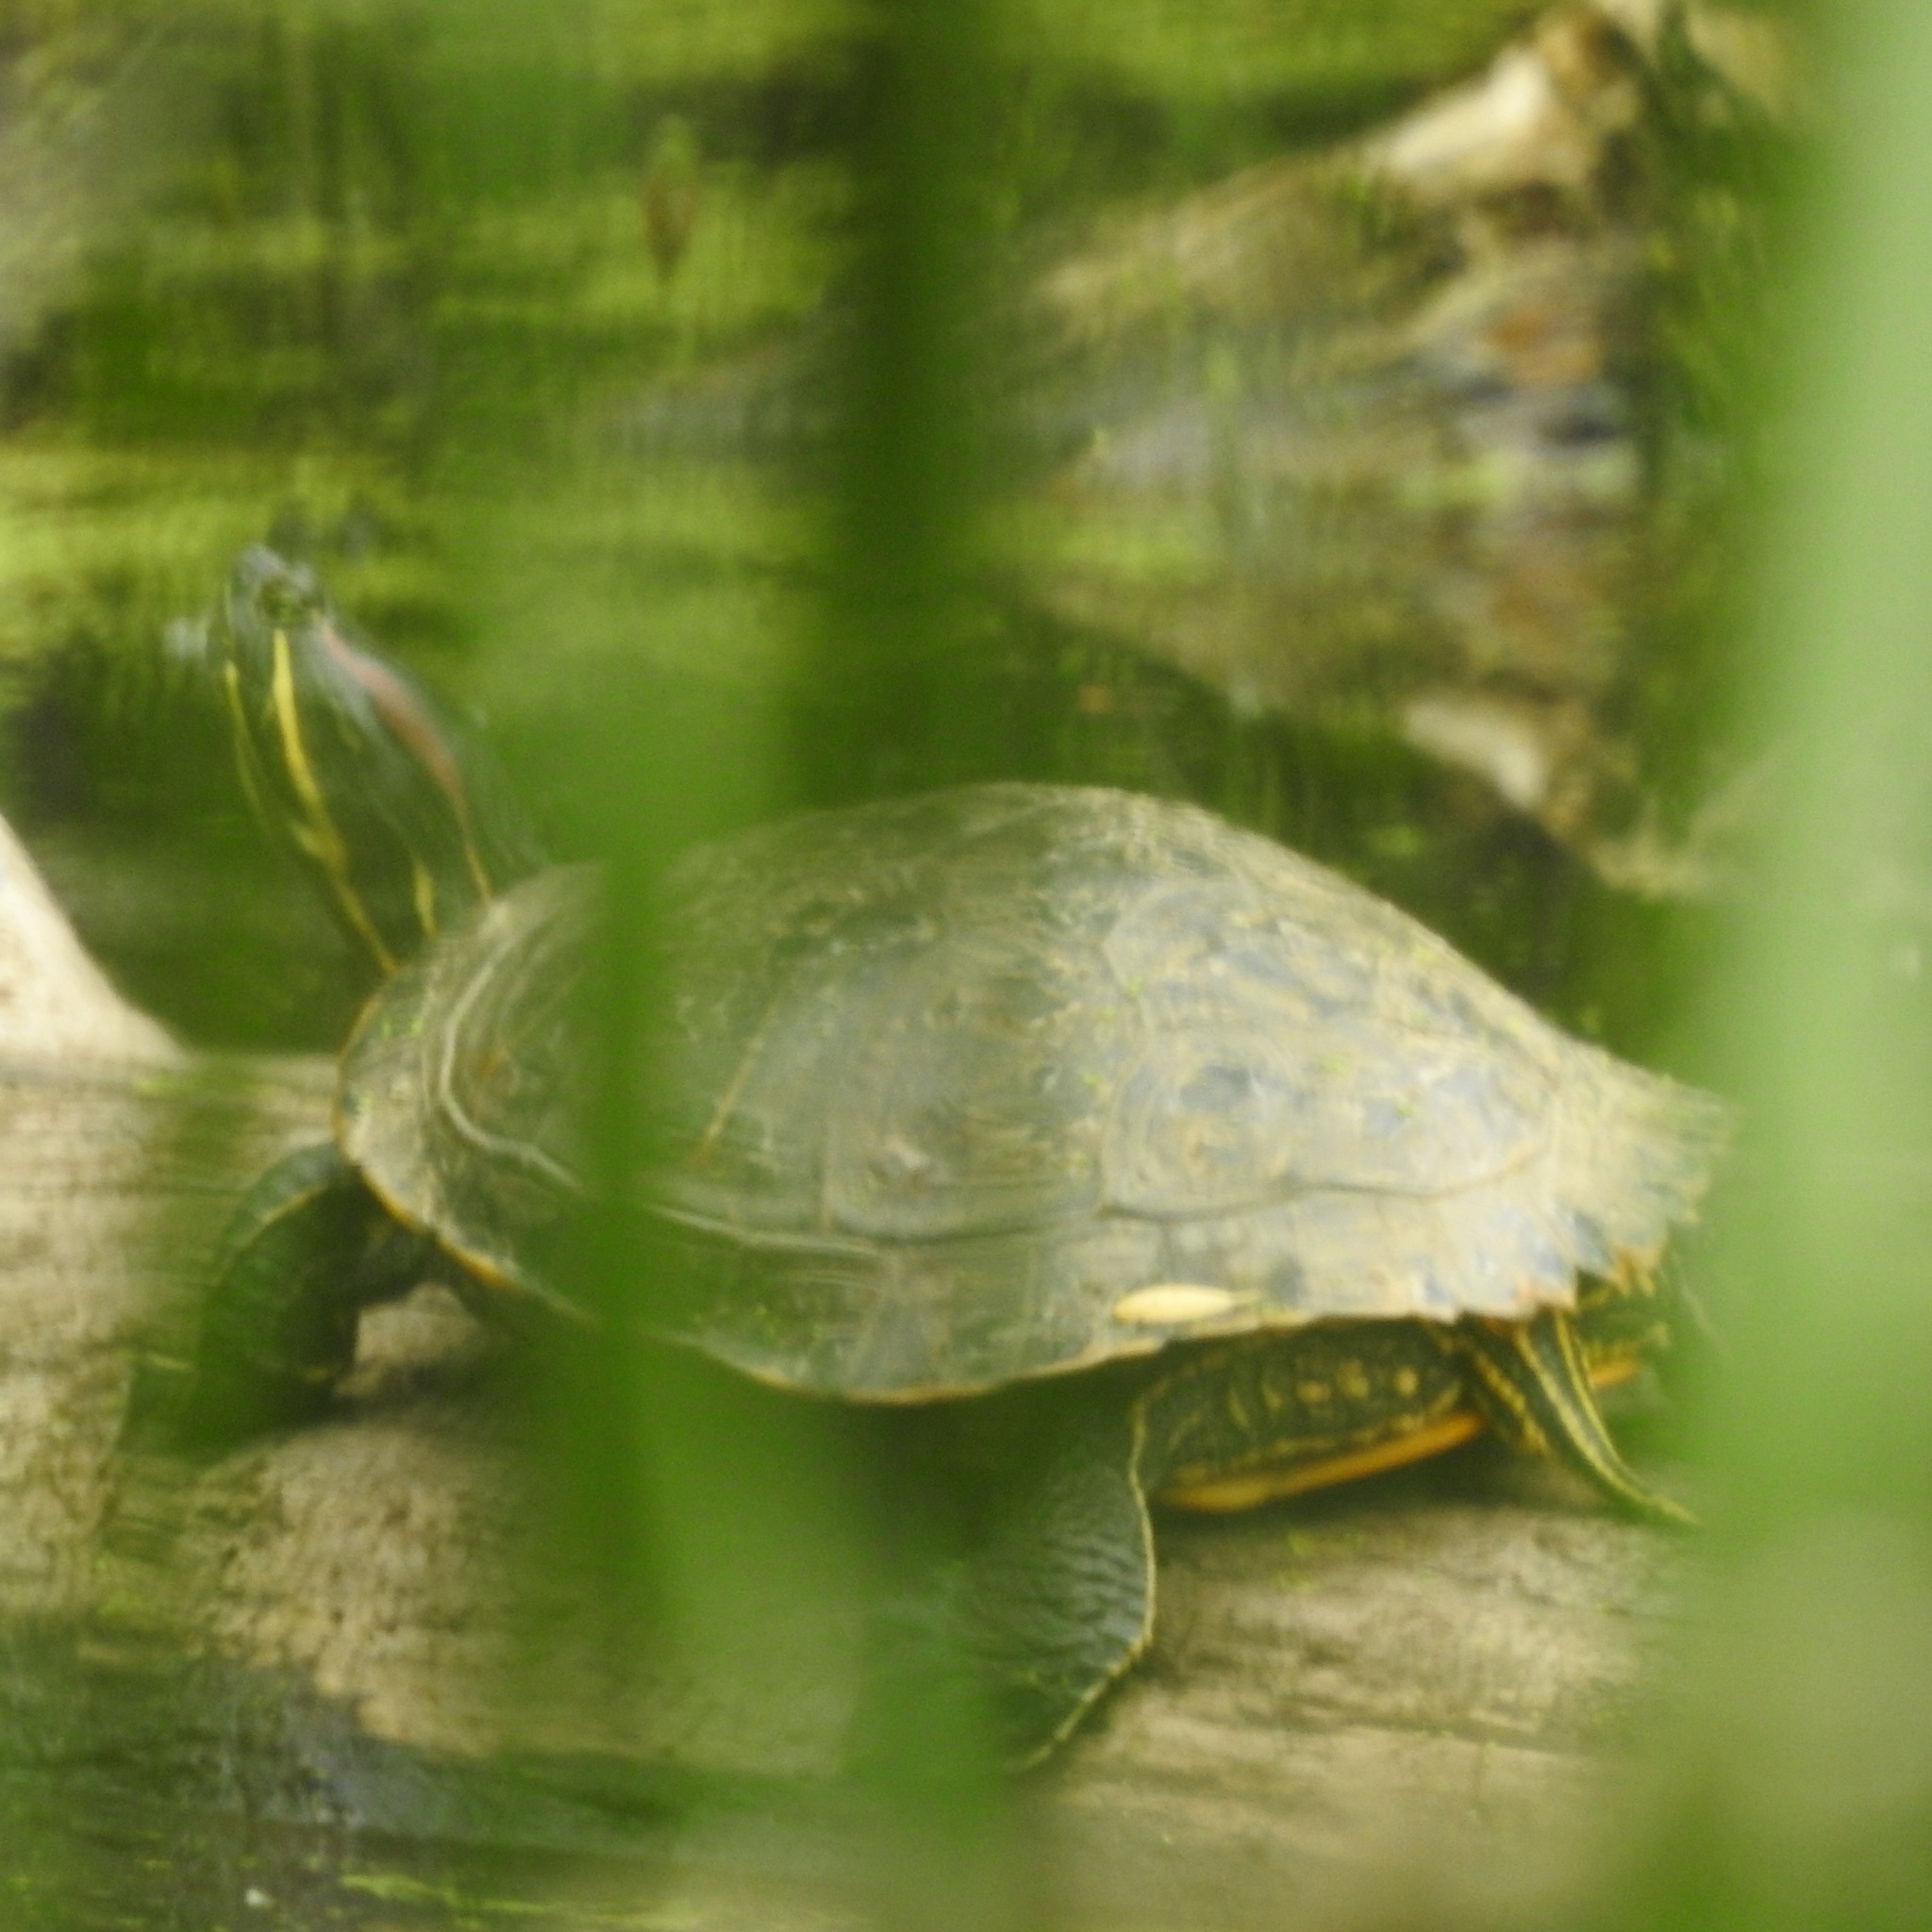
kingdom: Animalia
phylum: Chordata
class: Testudines
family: Emydidae
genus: Trachemys
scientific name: Trachemys scripta
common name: Slider
